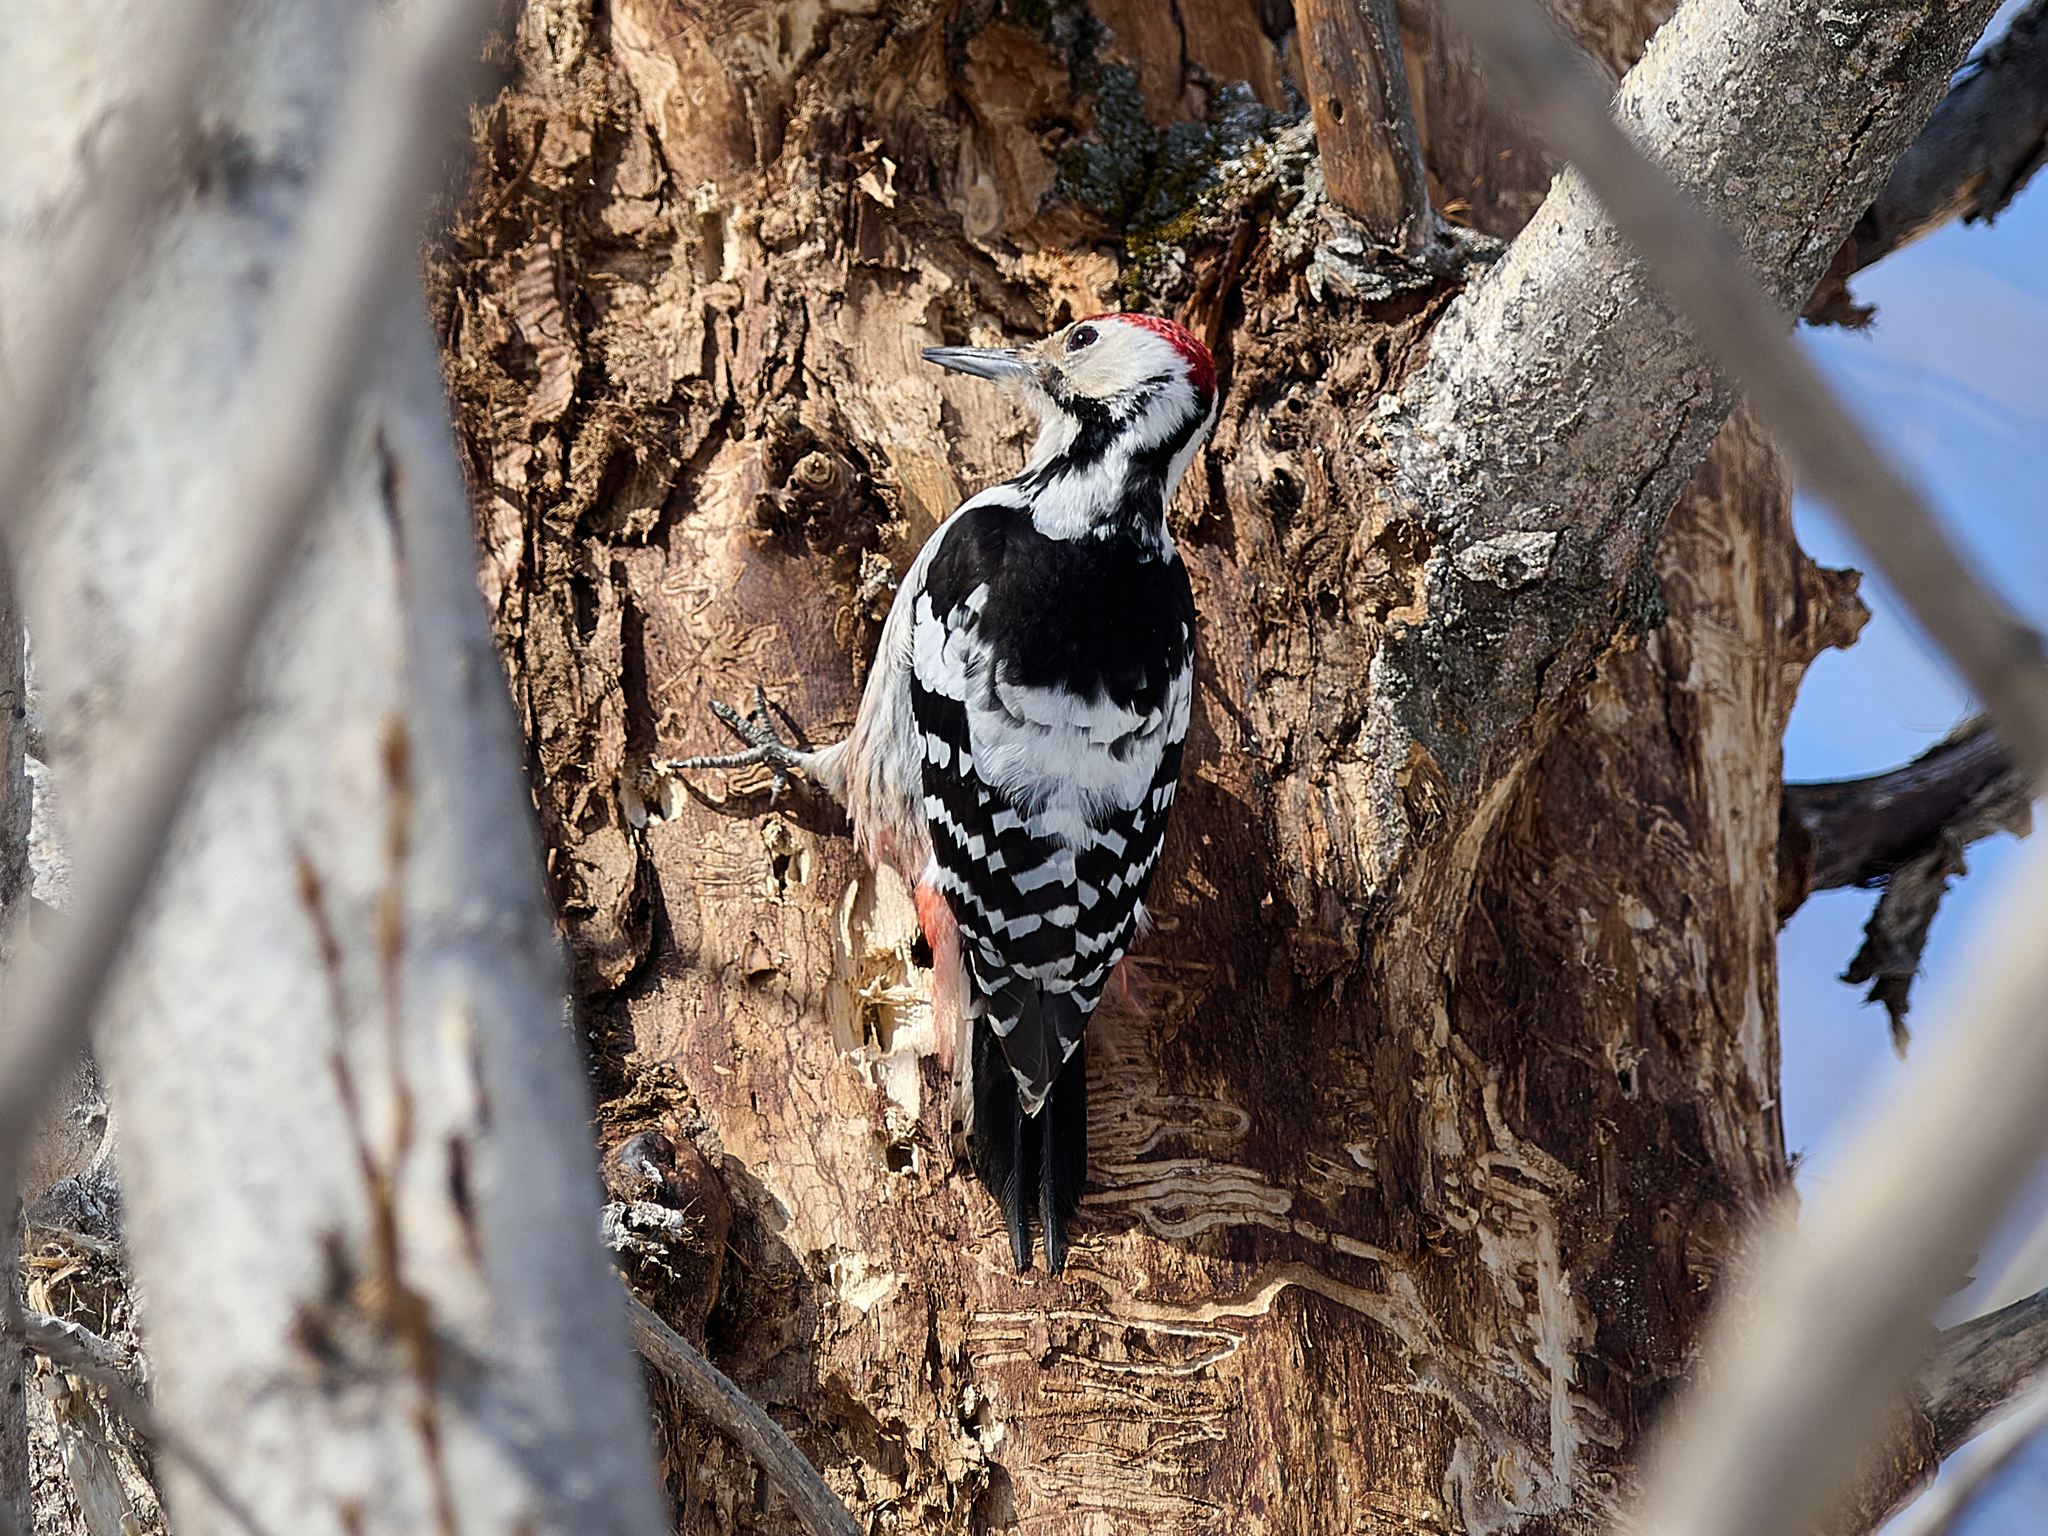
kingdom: Animalia
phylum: Chordata
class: Aves
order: Piciformes
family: Picidae
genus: Dendrocopos
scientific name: Dendrocopos leucotos
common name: White-backed woodpecker
